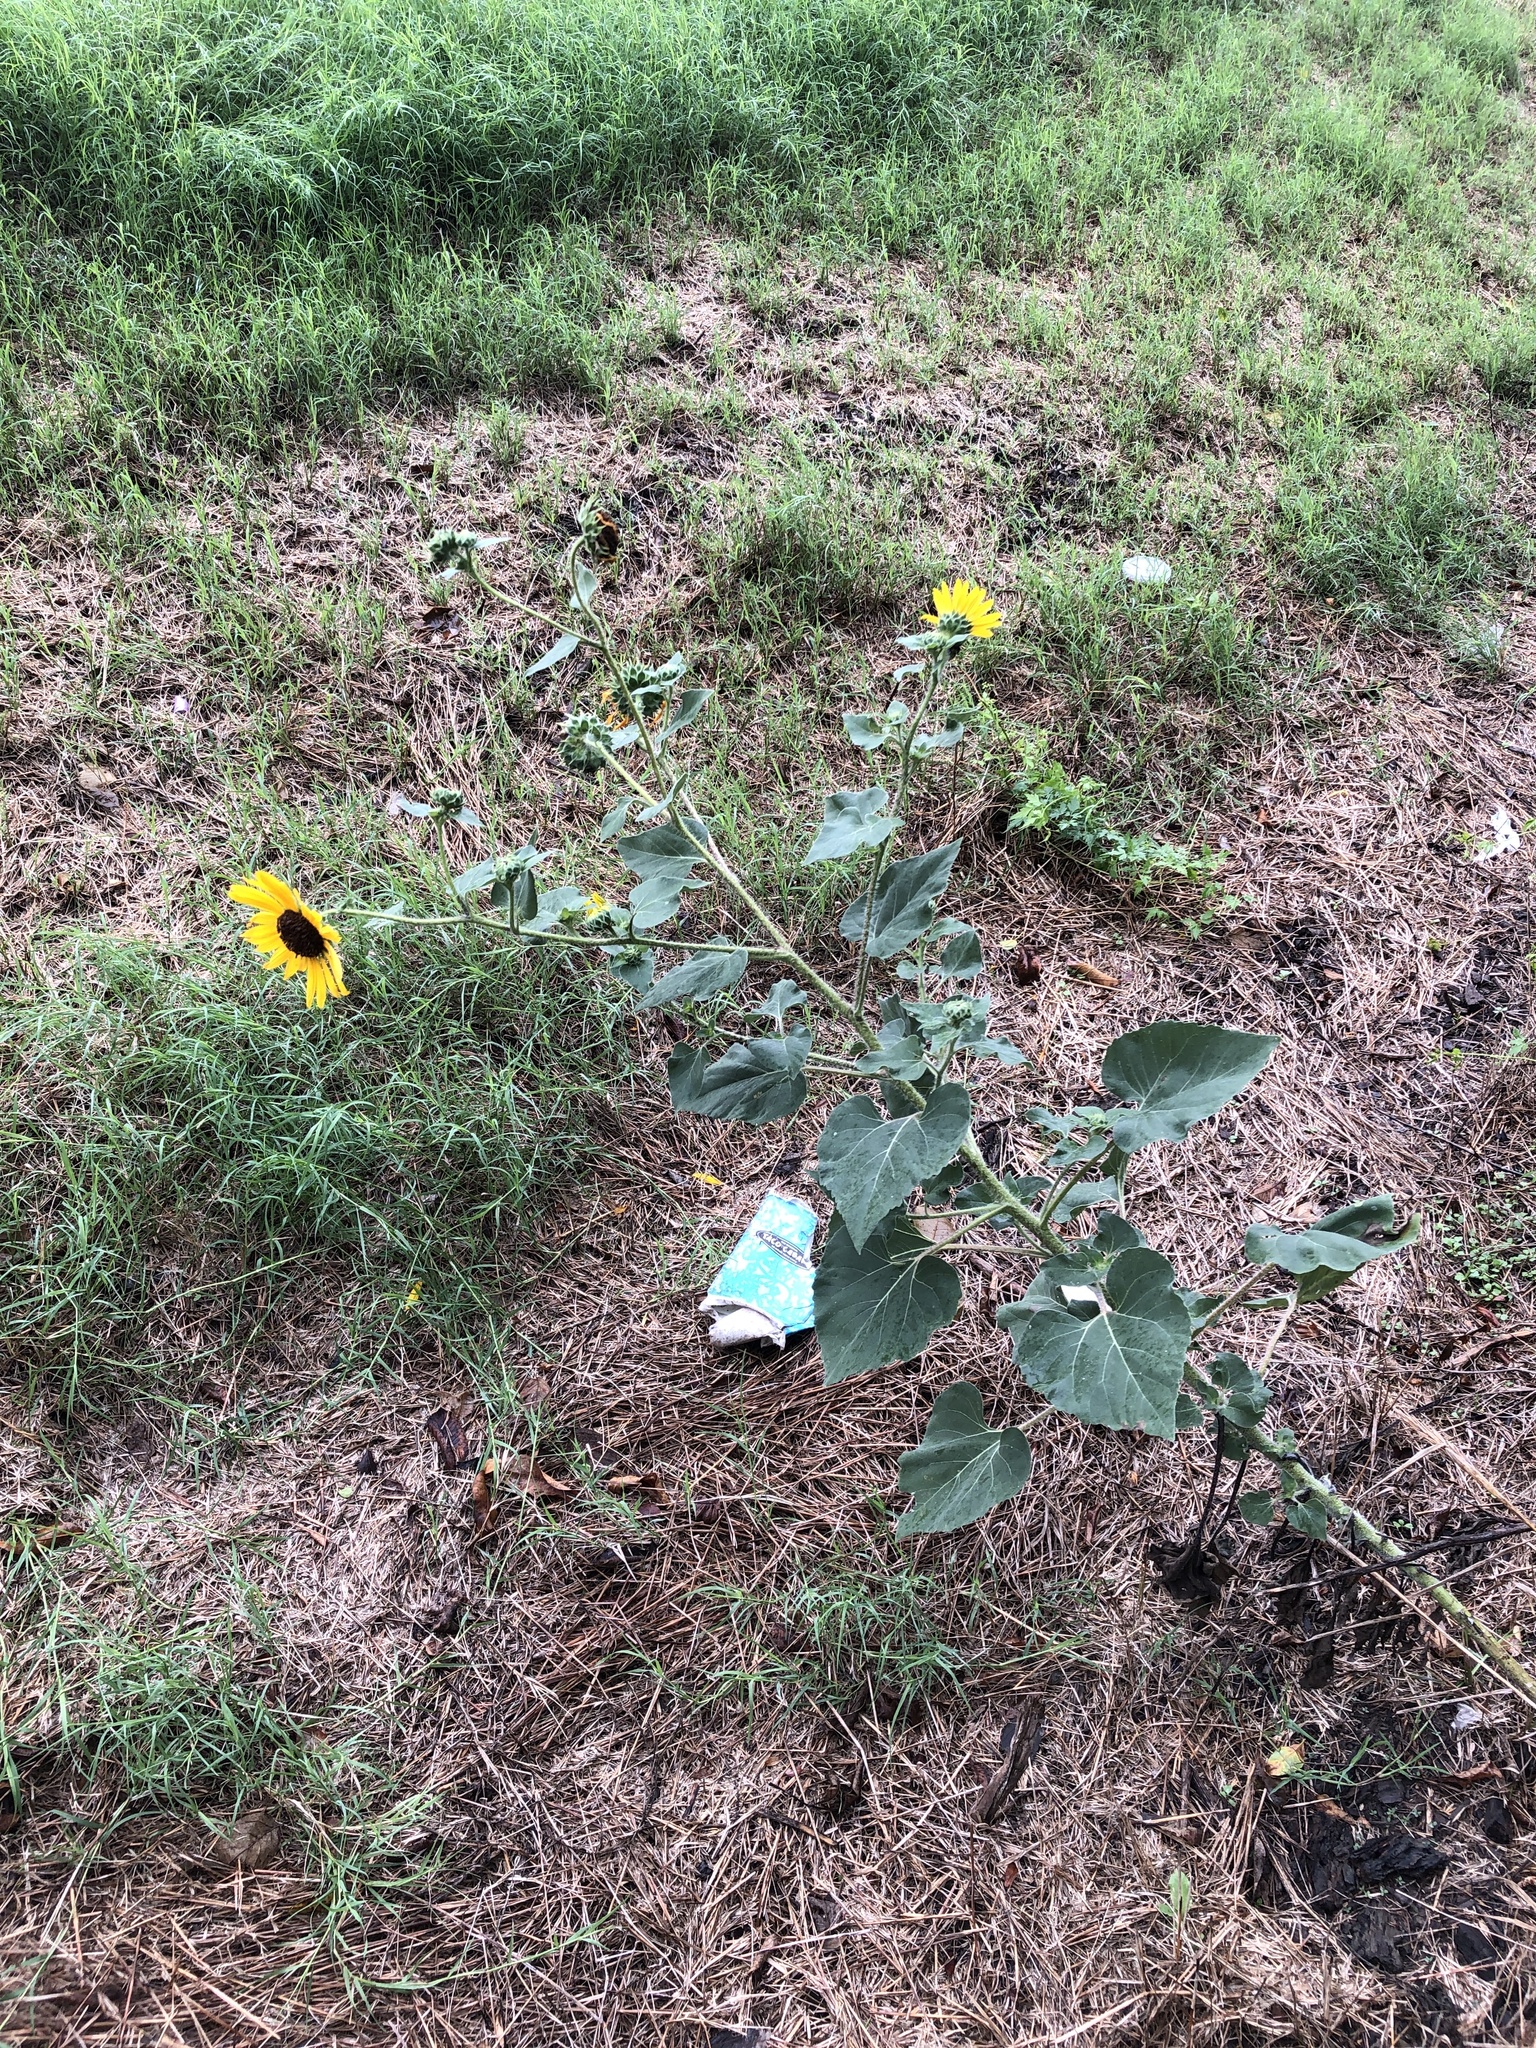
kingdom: Plantae
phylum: Tracheophyta
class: Magnoliopsida
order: Asterales
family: Asteraceae
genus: Helianthus
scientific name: Helianthus annuus
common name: Sunflower
